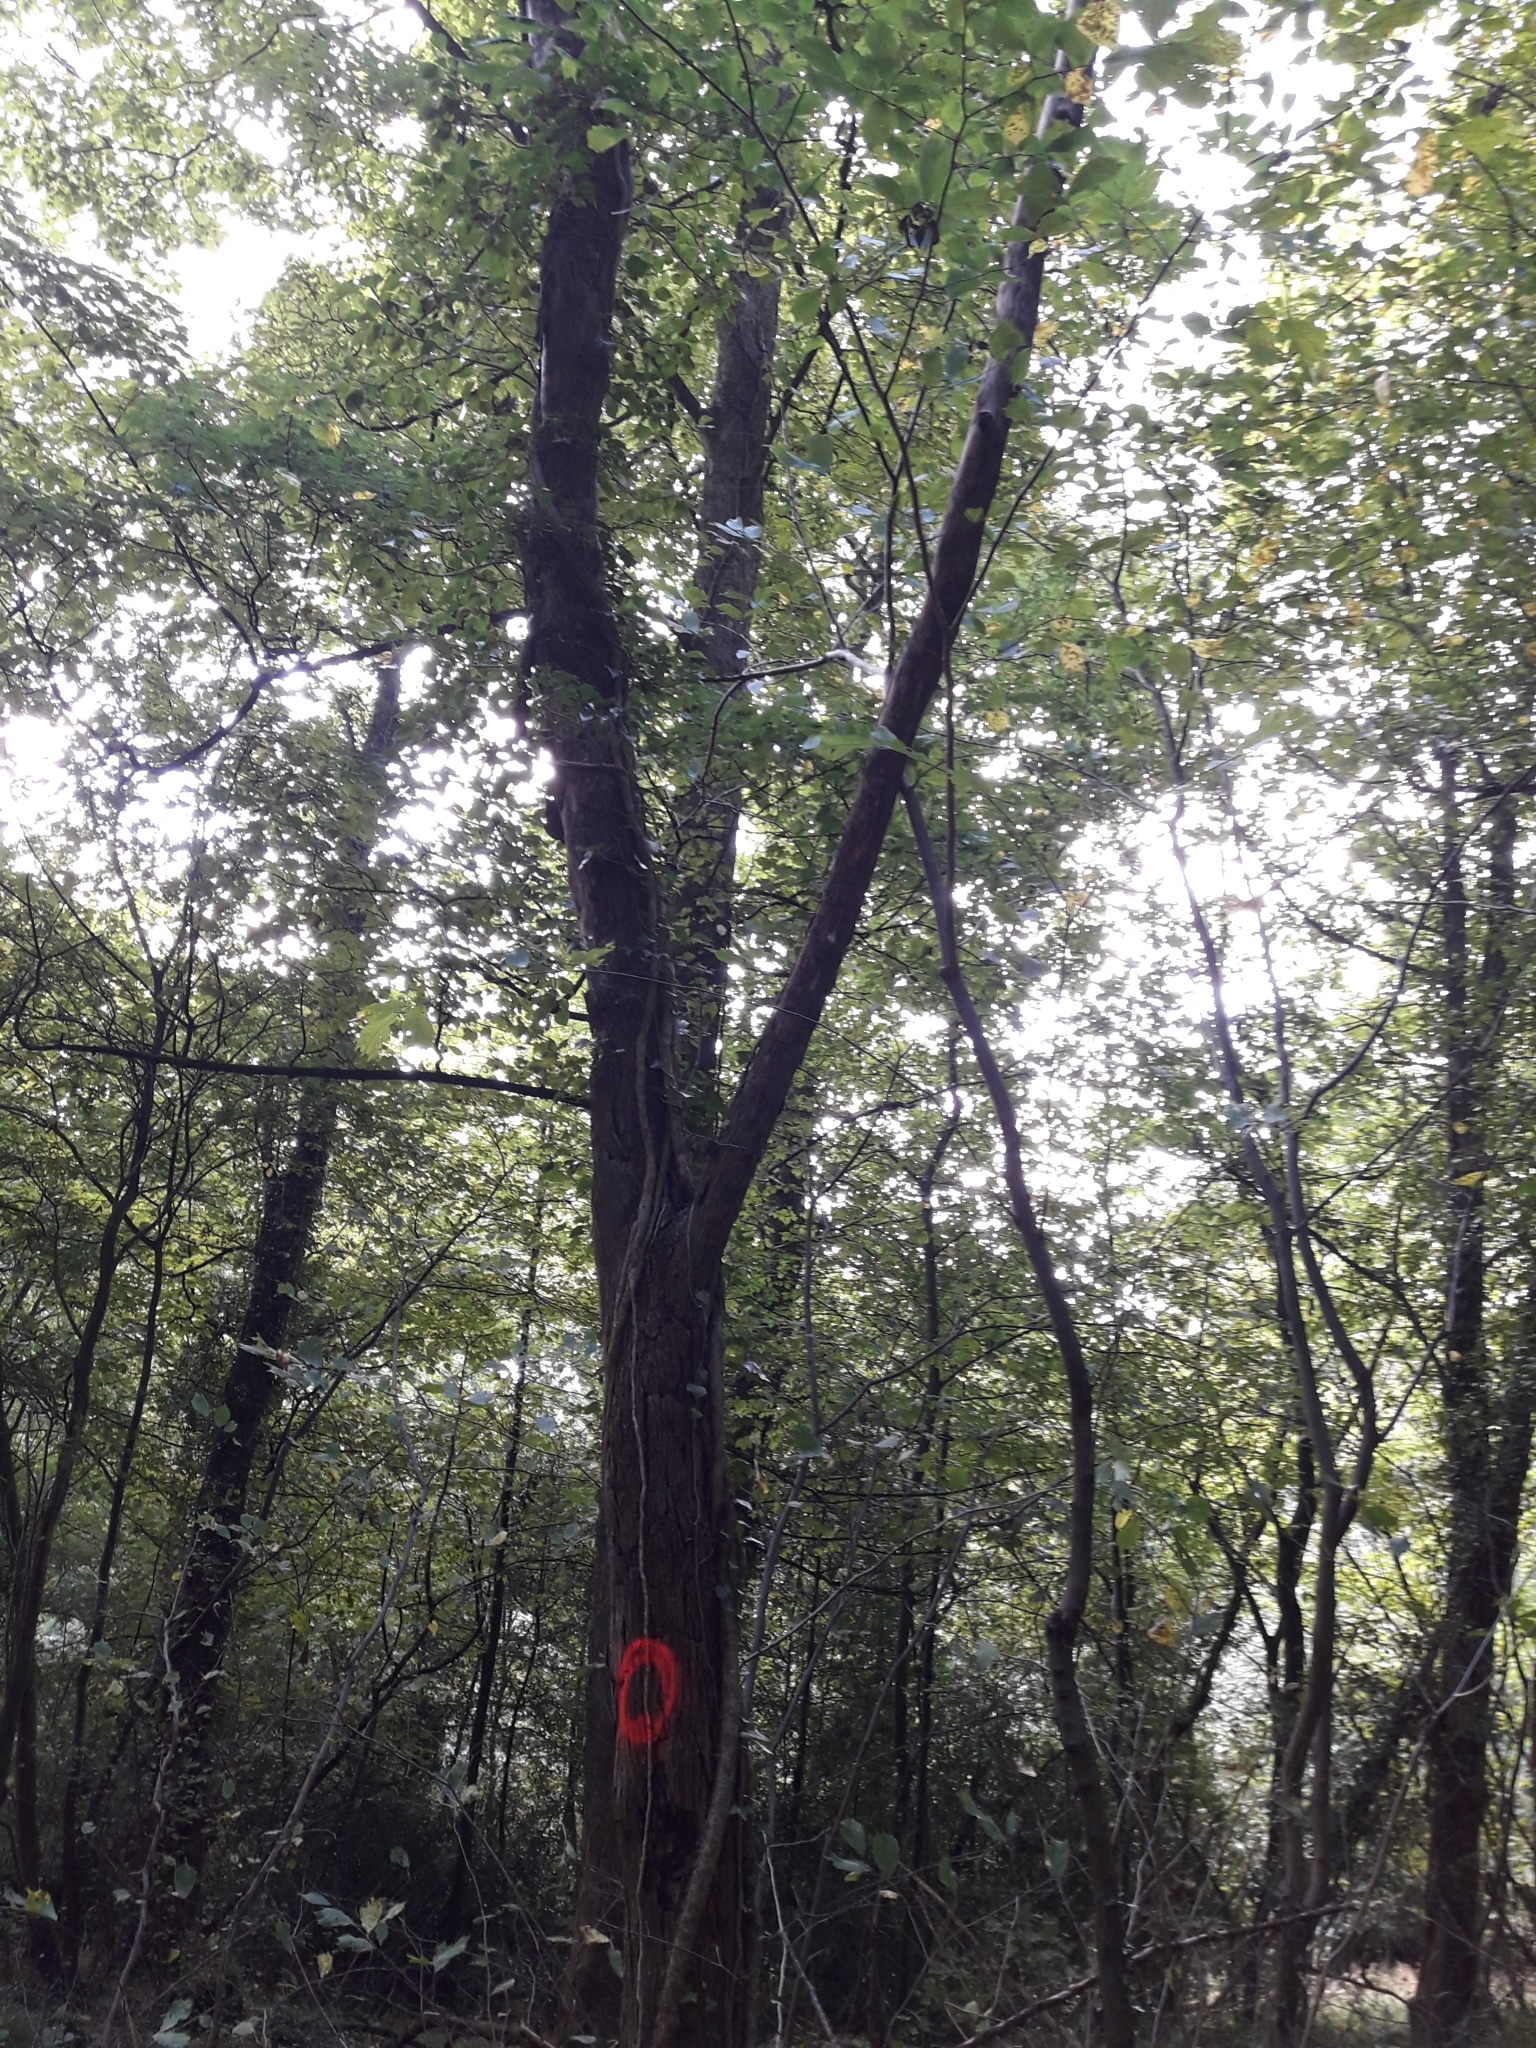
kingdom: Plantae
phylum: Tracheophyta
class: Magnoliopsida
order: Rosales
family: Ulmaceae
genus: Ulmus
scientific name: Ulmus glabra
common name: Wych elm
